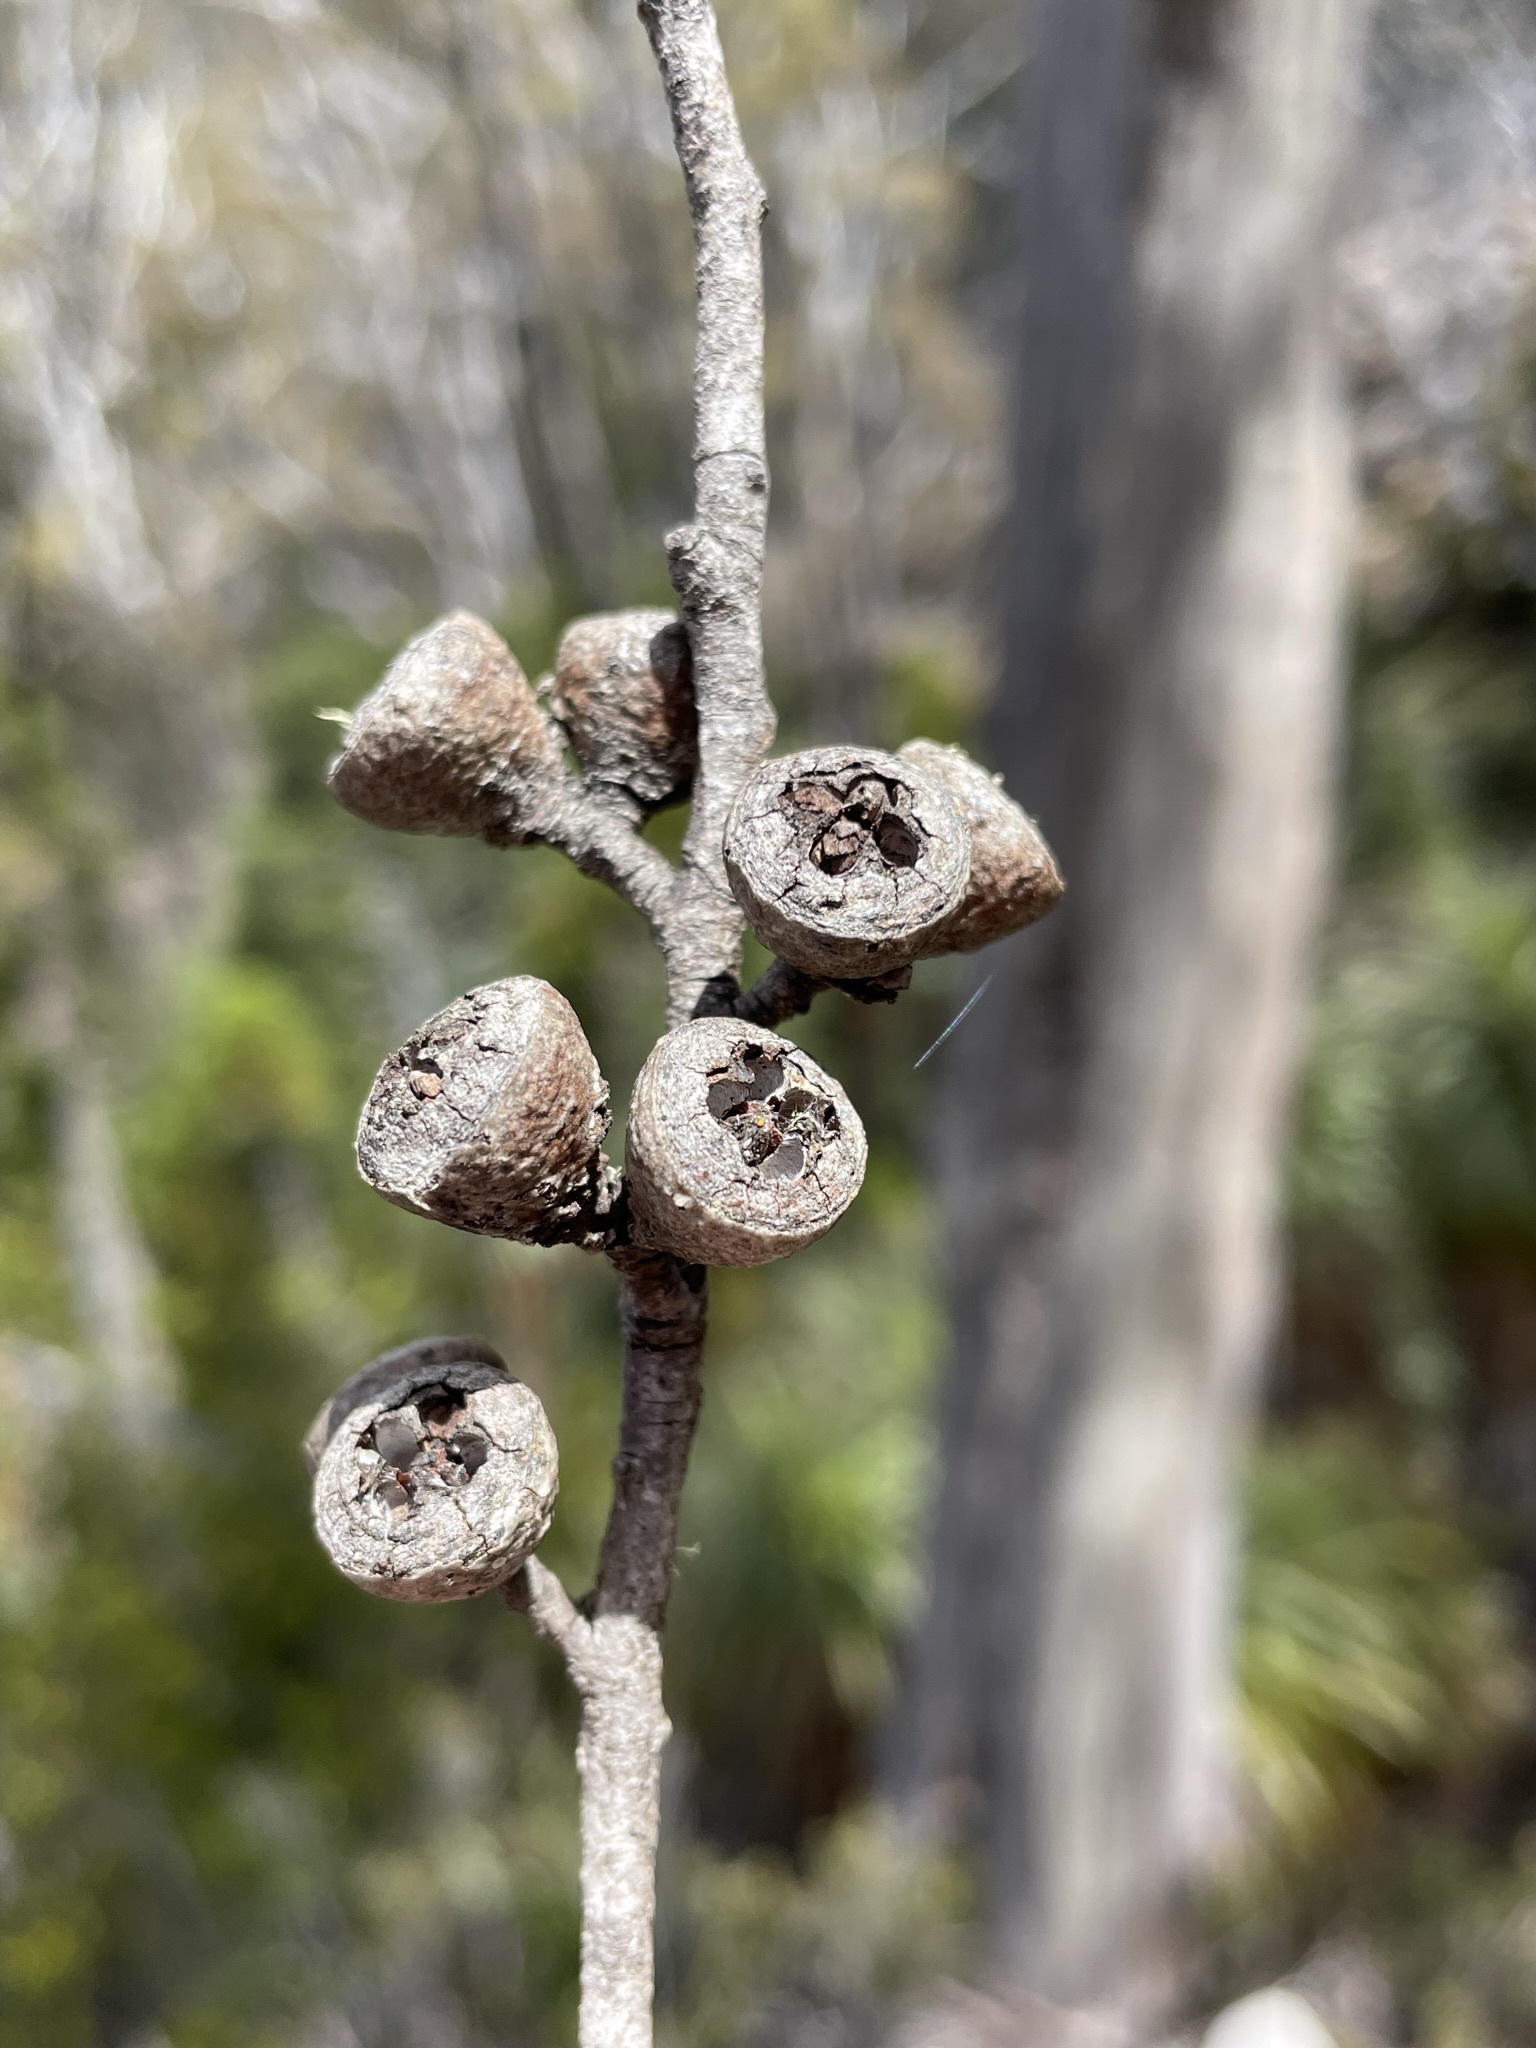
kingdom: Plantae
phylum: Tracheophyta
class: Magnoliopsida
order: Myrtales
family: Myrtaceae
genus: Eucalyptus
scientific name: Eucalyptus coccifera
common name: Tasmanian snow-gum
